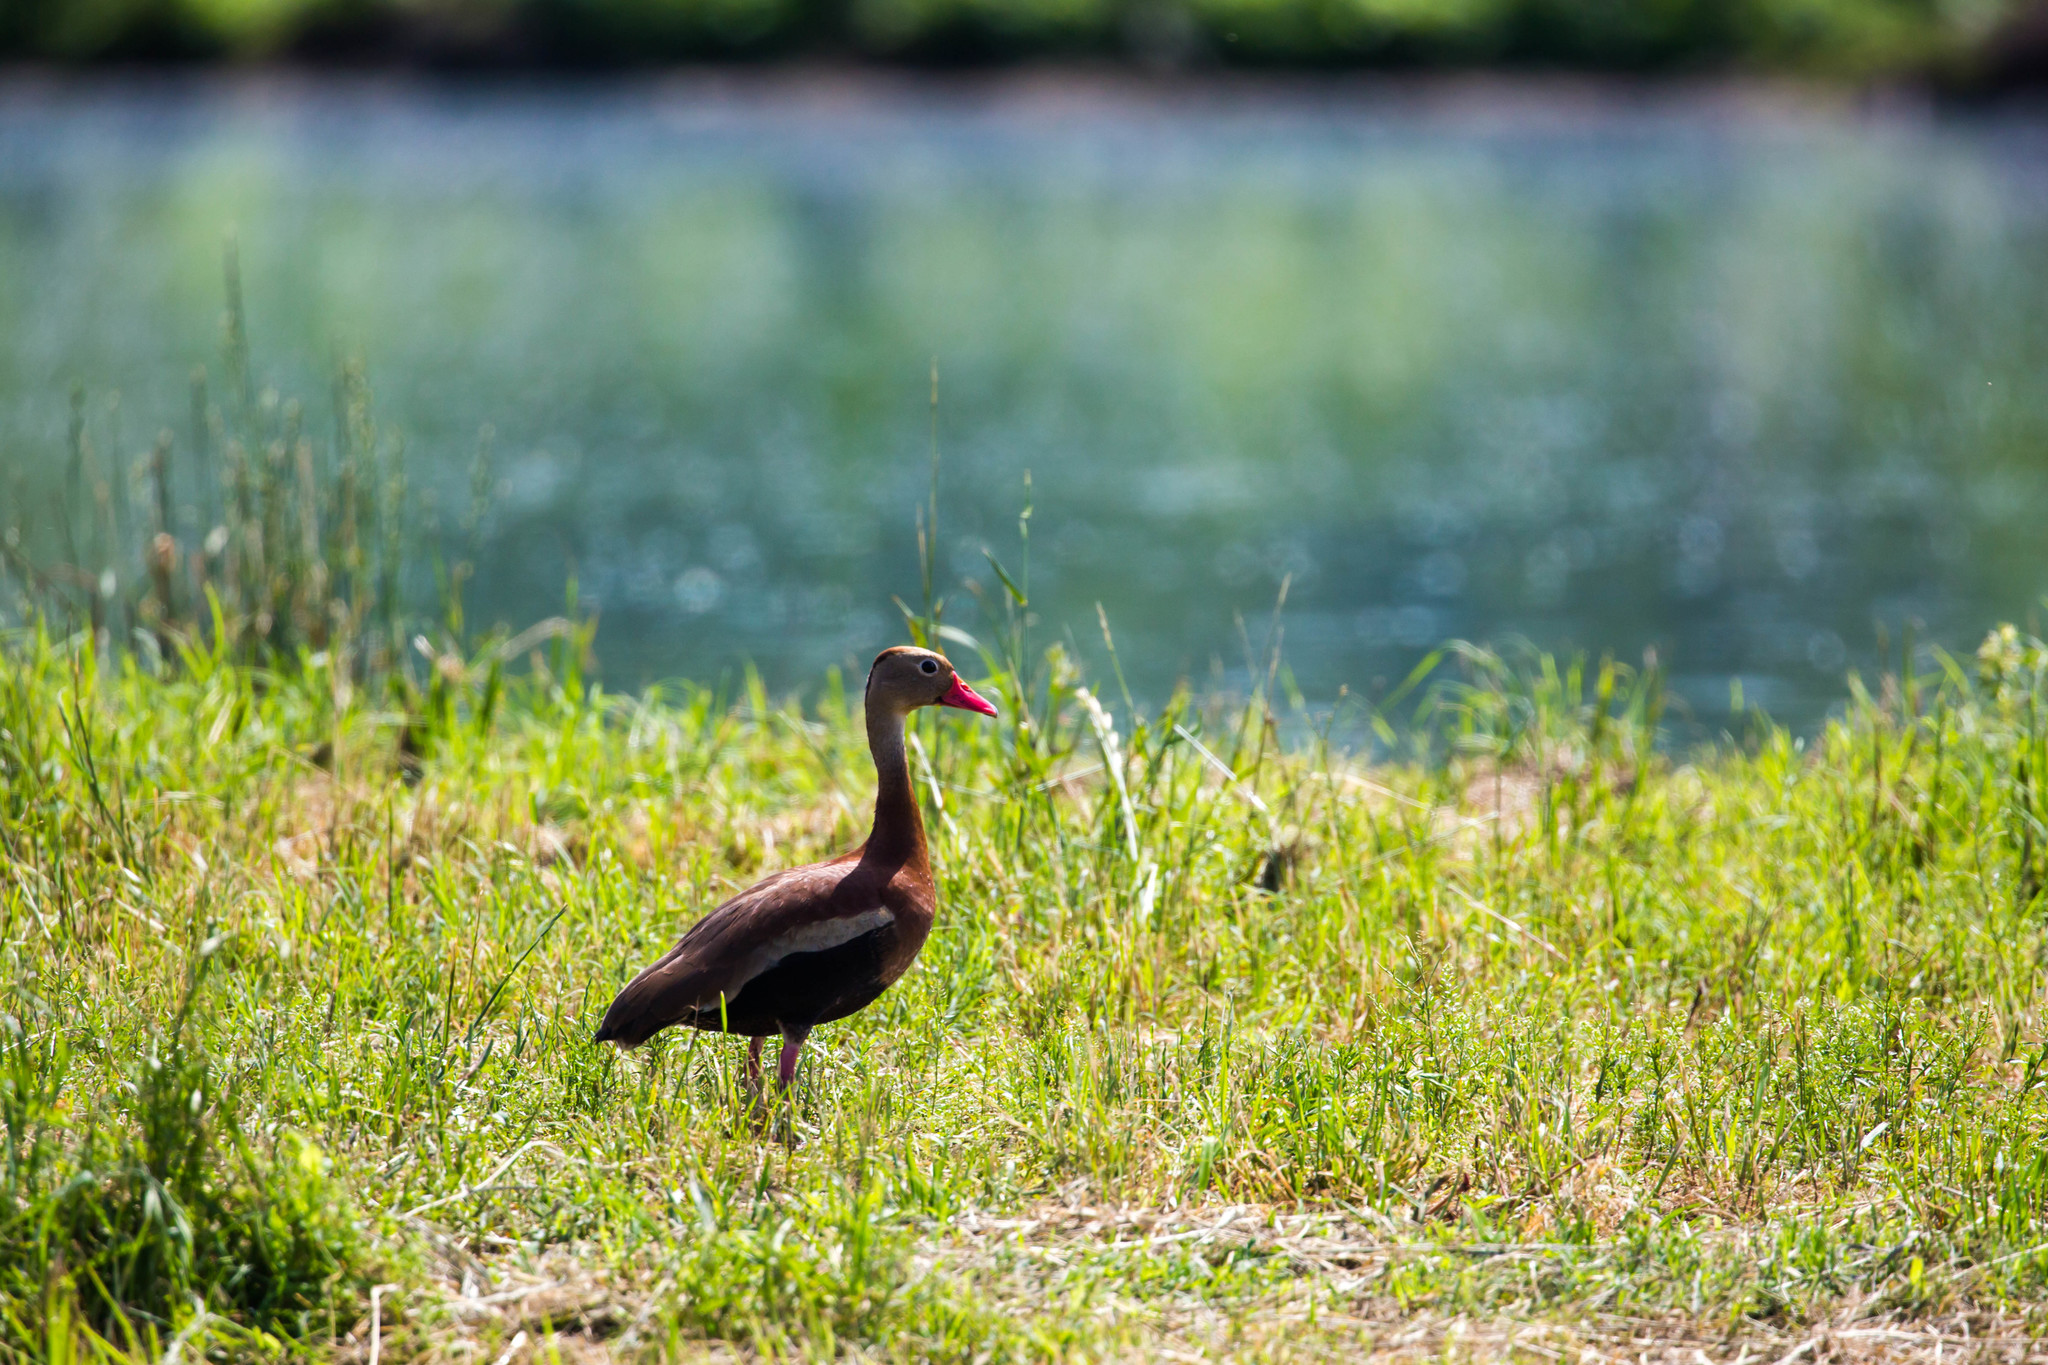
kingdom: Animalia
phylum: Chordata
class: Aves
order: Anseriformes
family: Anatidae
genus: Dendrocygna
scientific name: Dendrocygna autumnalis
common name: Black-bellied whistling duck
